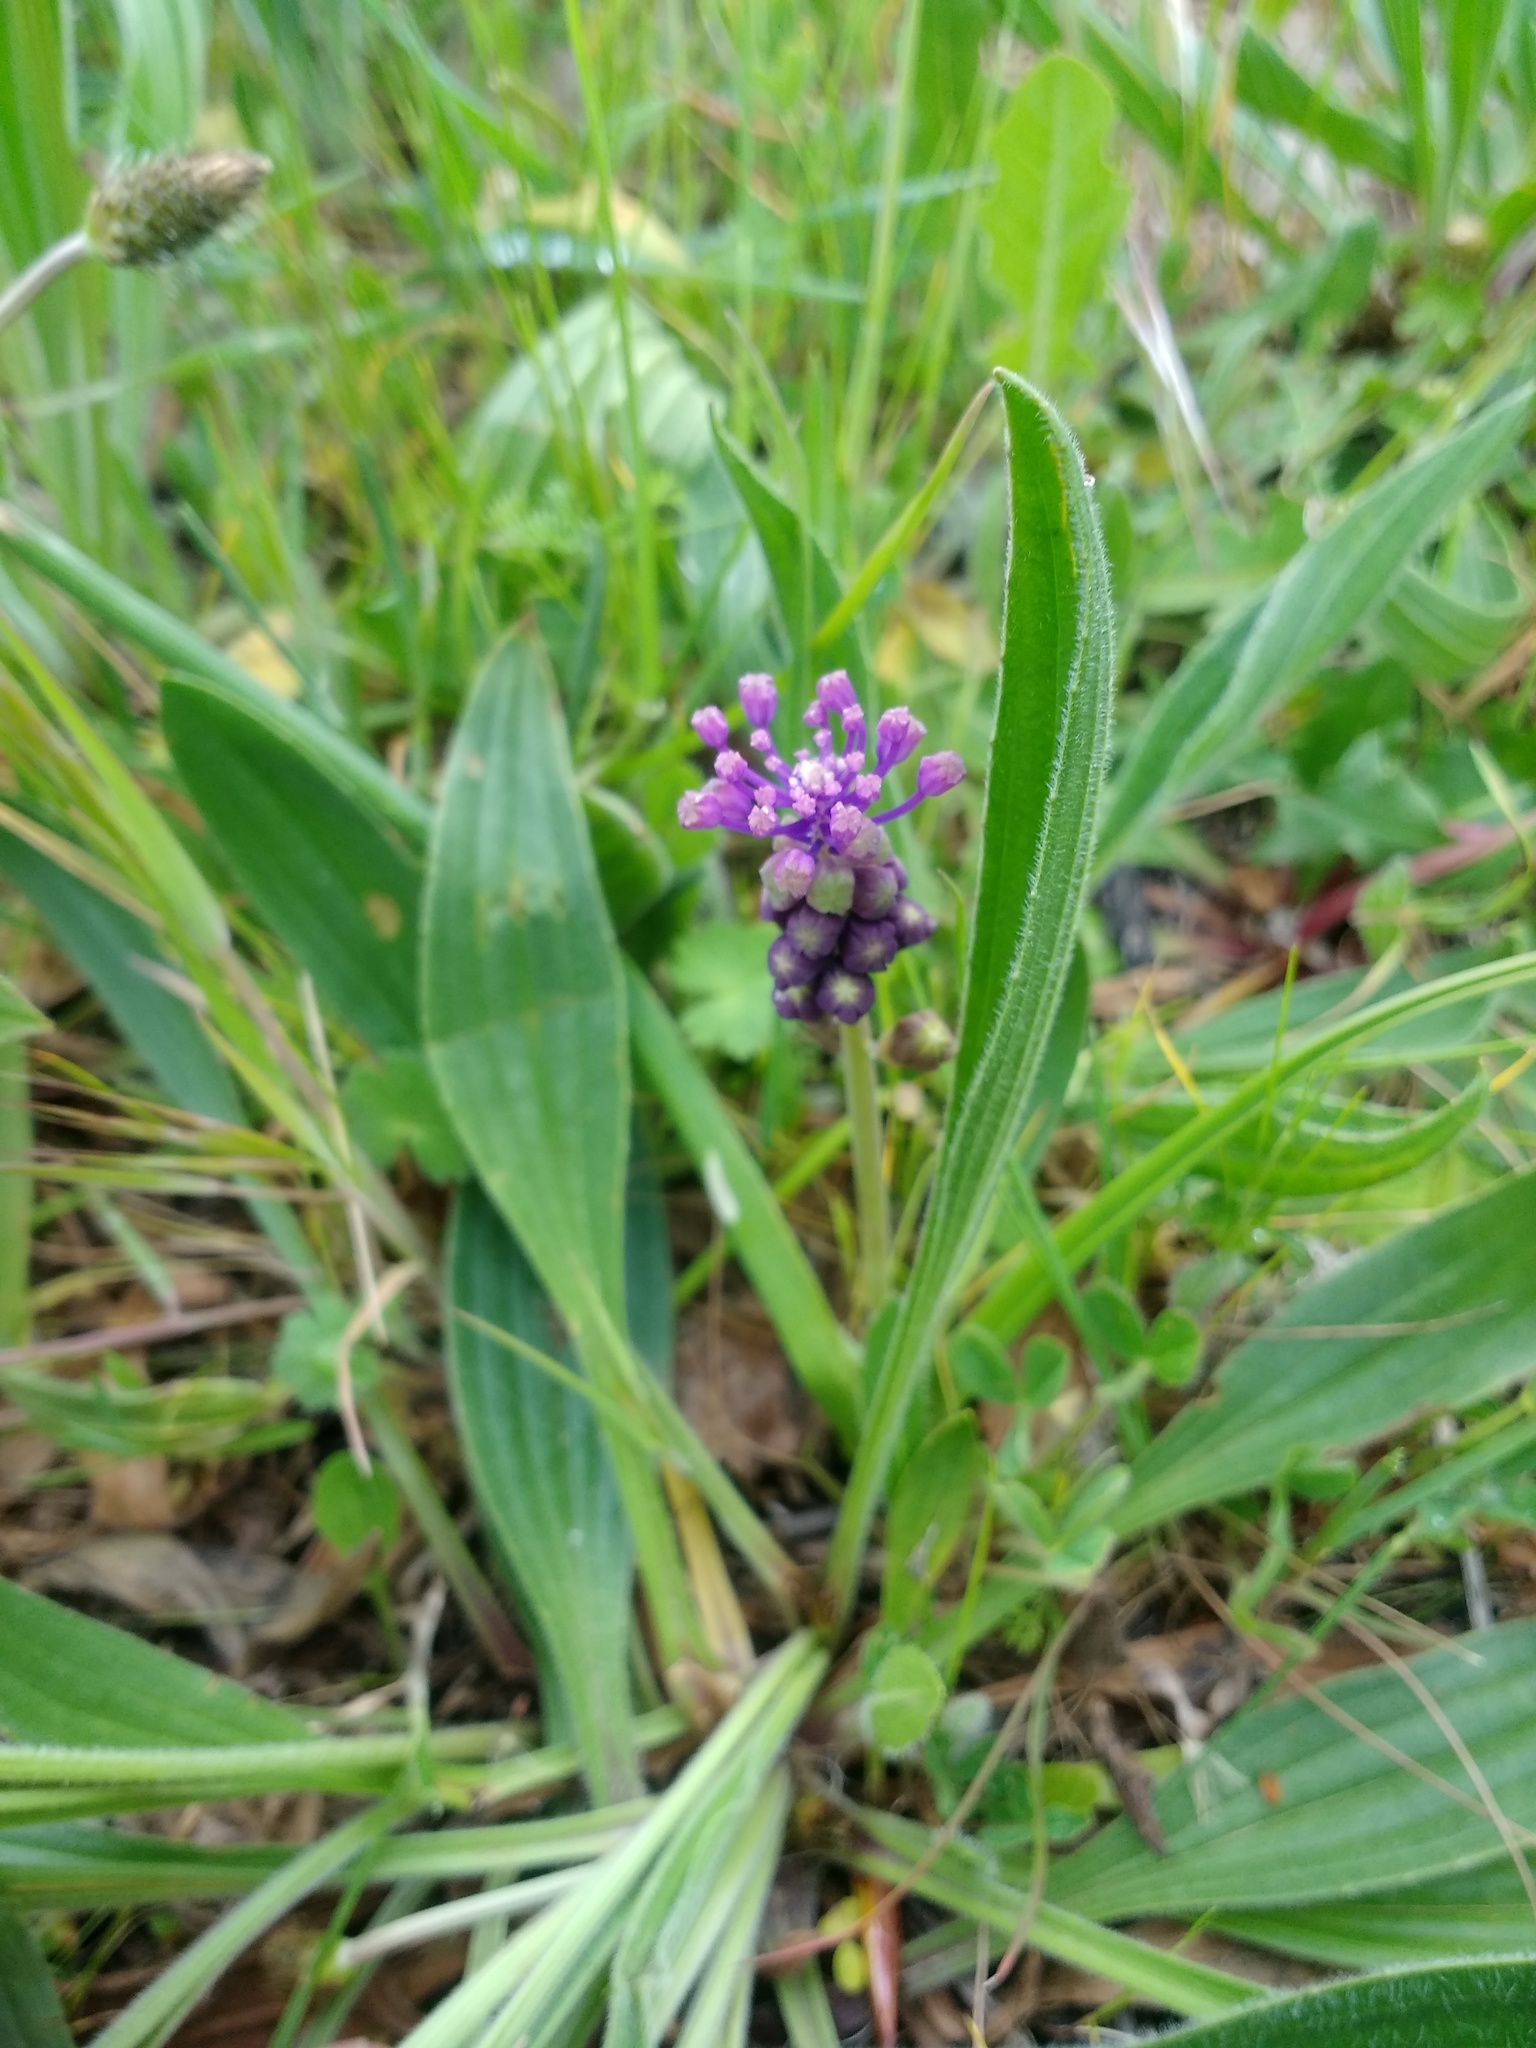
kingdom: Plantae
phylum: Tracheophyta
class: Liliopsida
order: Asparagales
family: Asparagaceae
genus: Muscari
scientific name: Muscari comosum
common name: Tassel hyacinth
